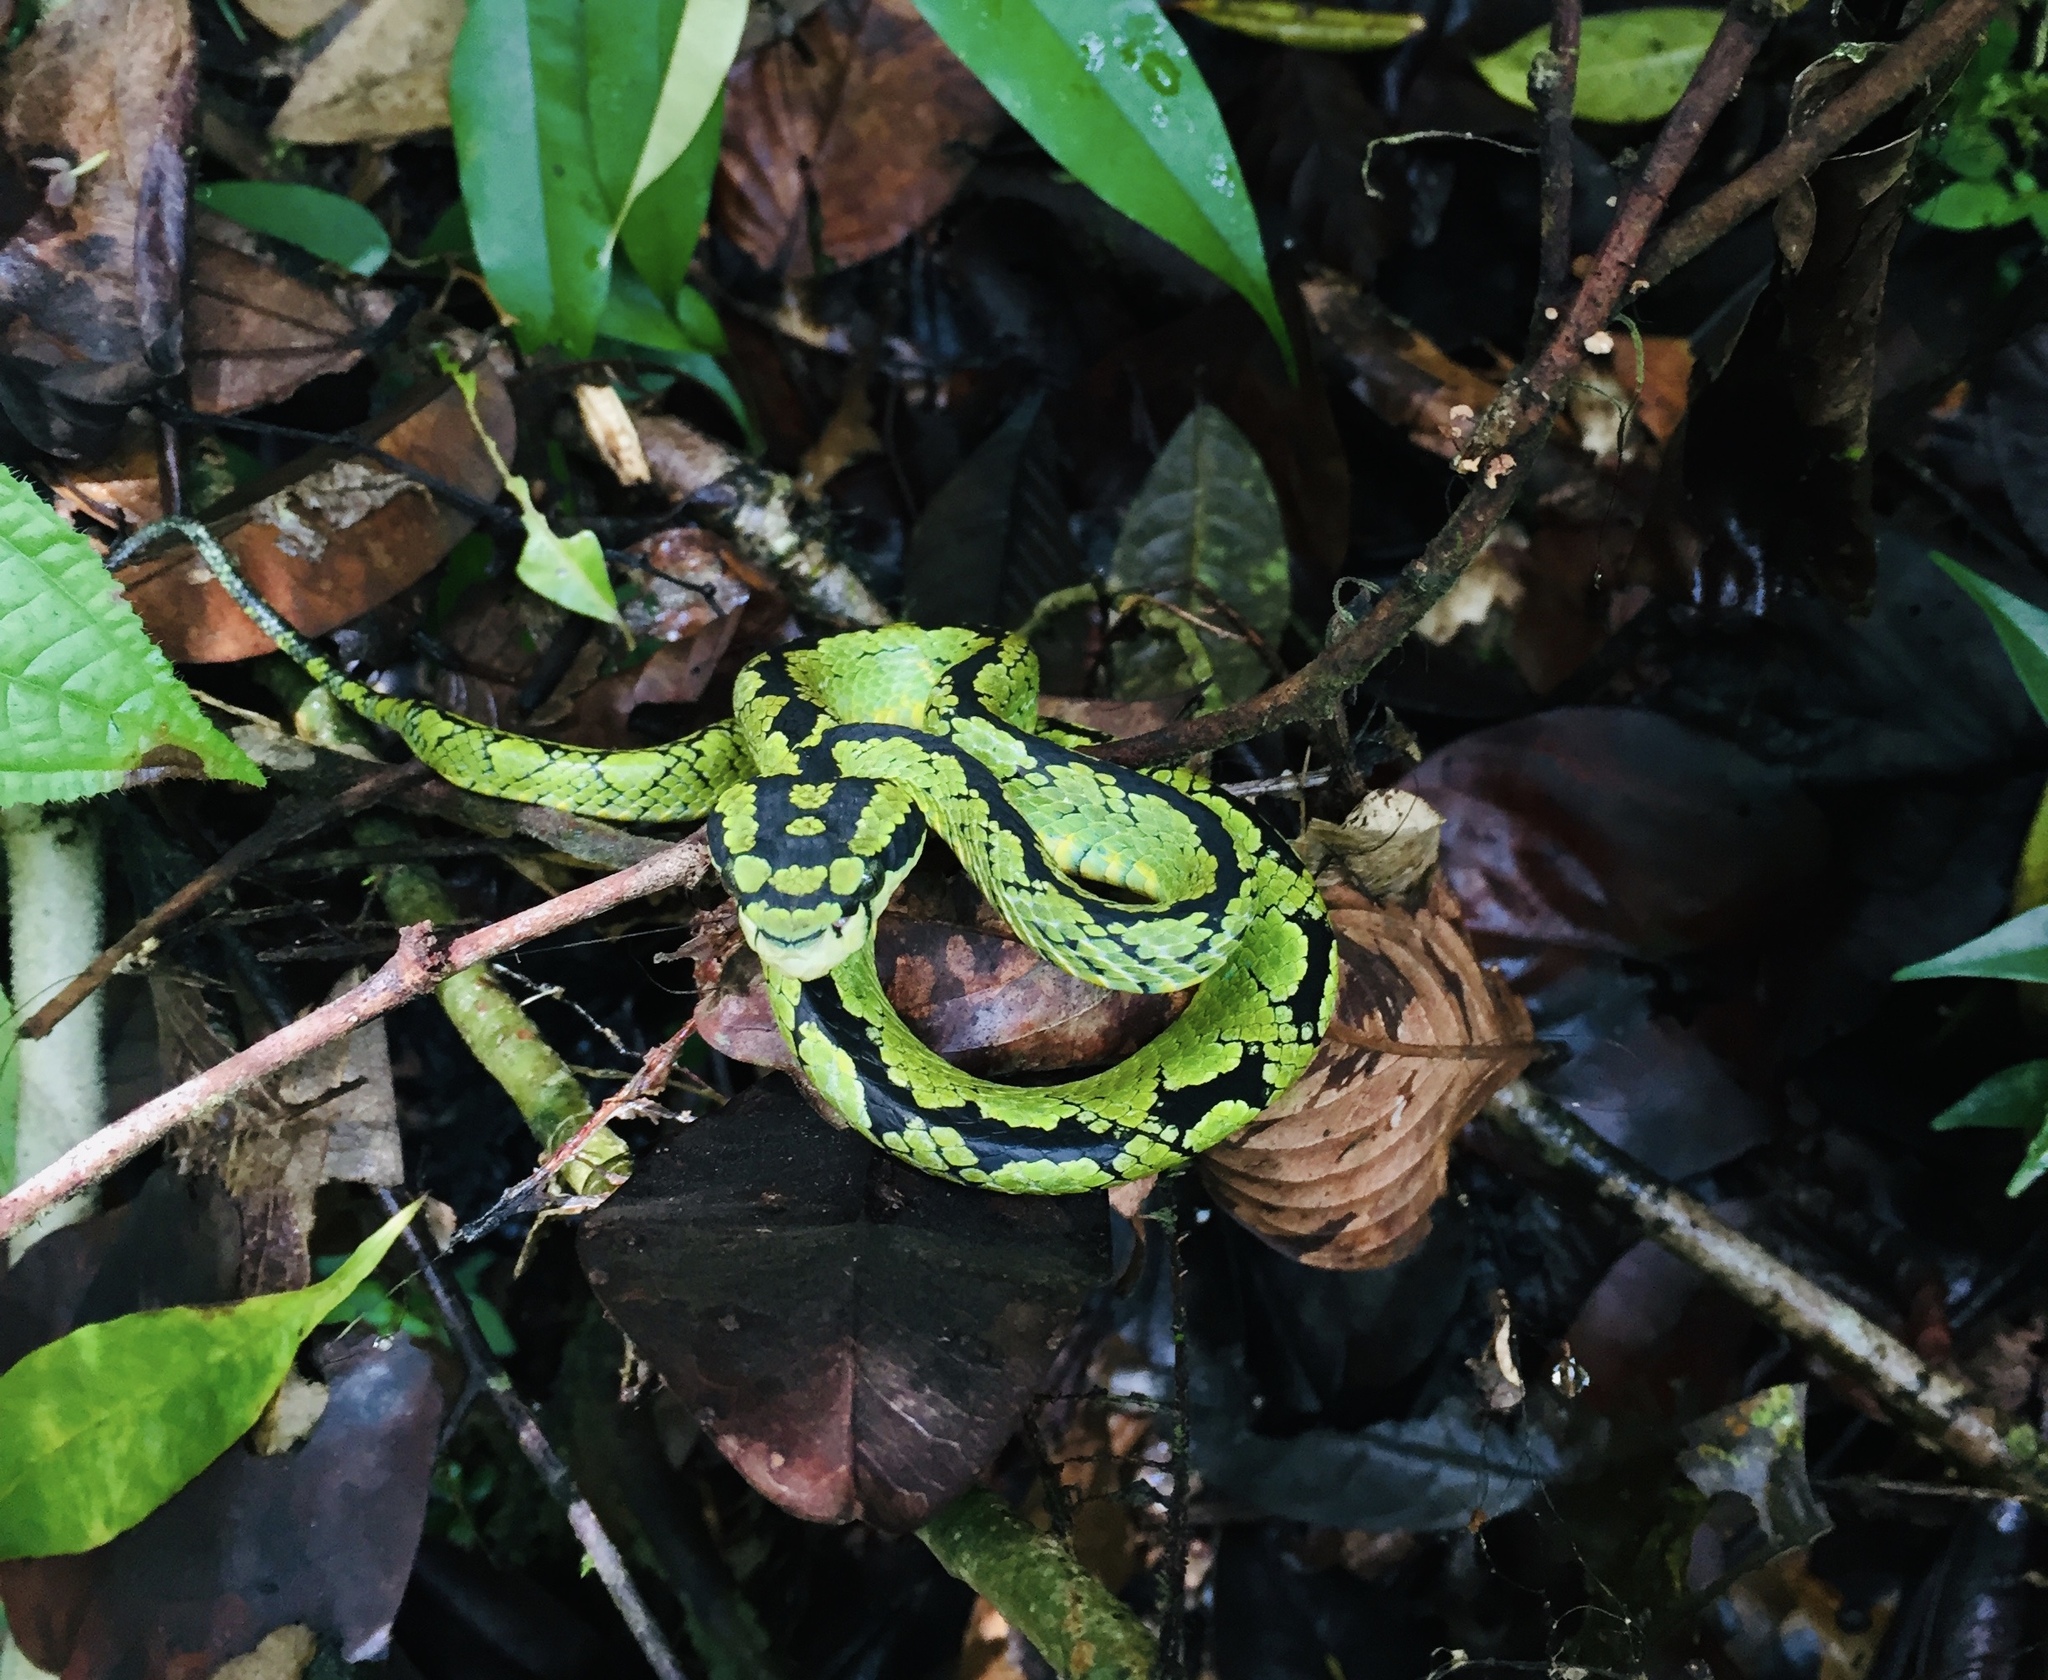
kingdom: Animalia
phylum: Chordata
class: Squamata
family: Viperidae
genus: Craspedocephalus
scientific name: Craspedocephalus trigonocephalus
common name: Ceylon pit viper
